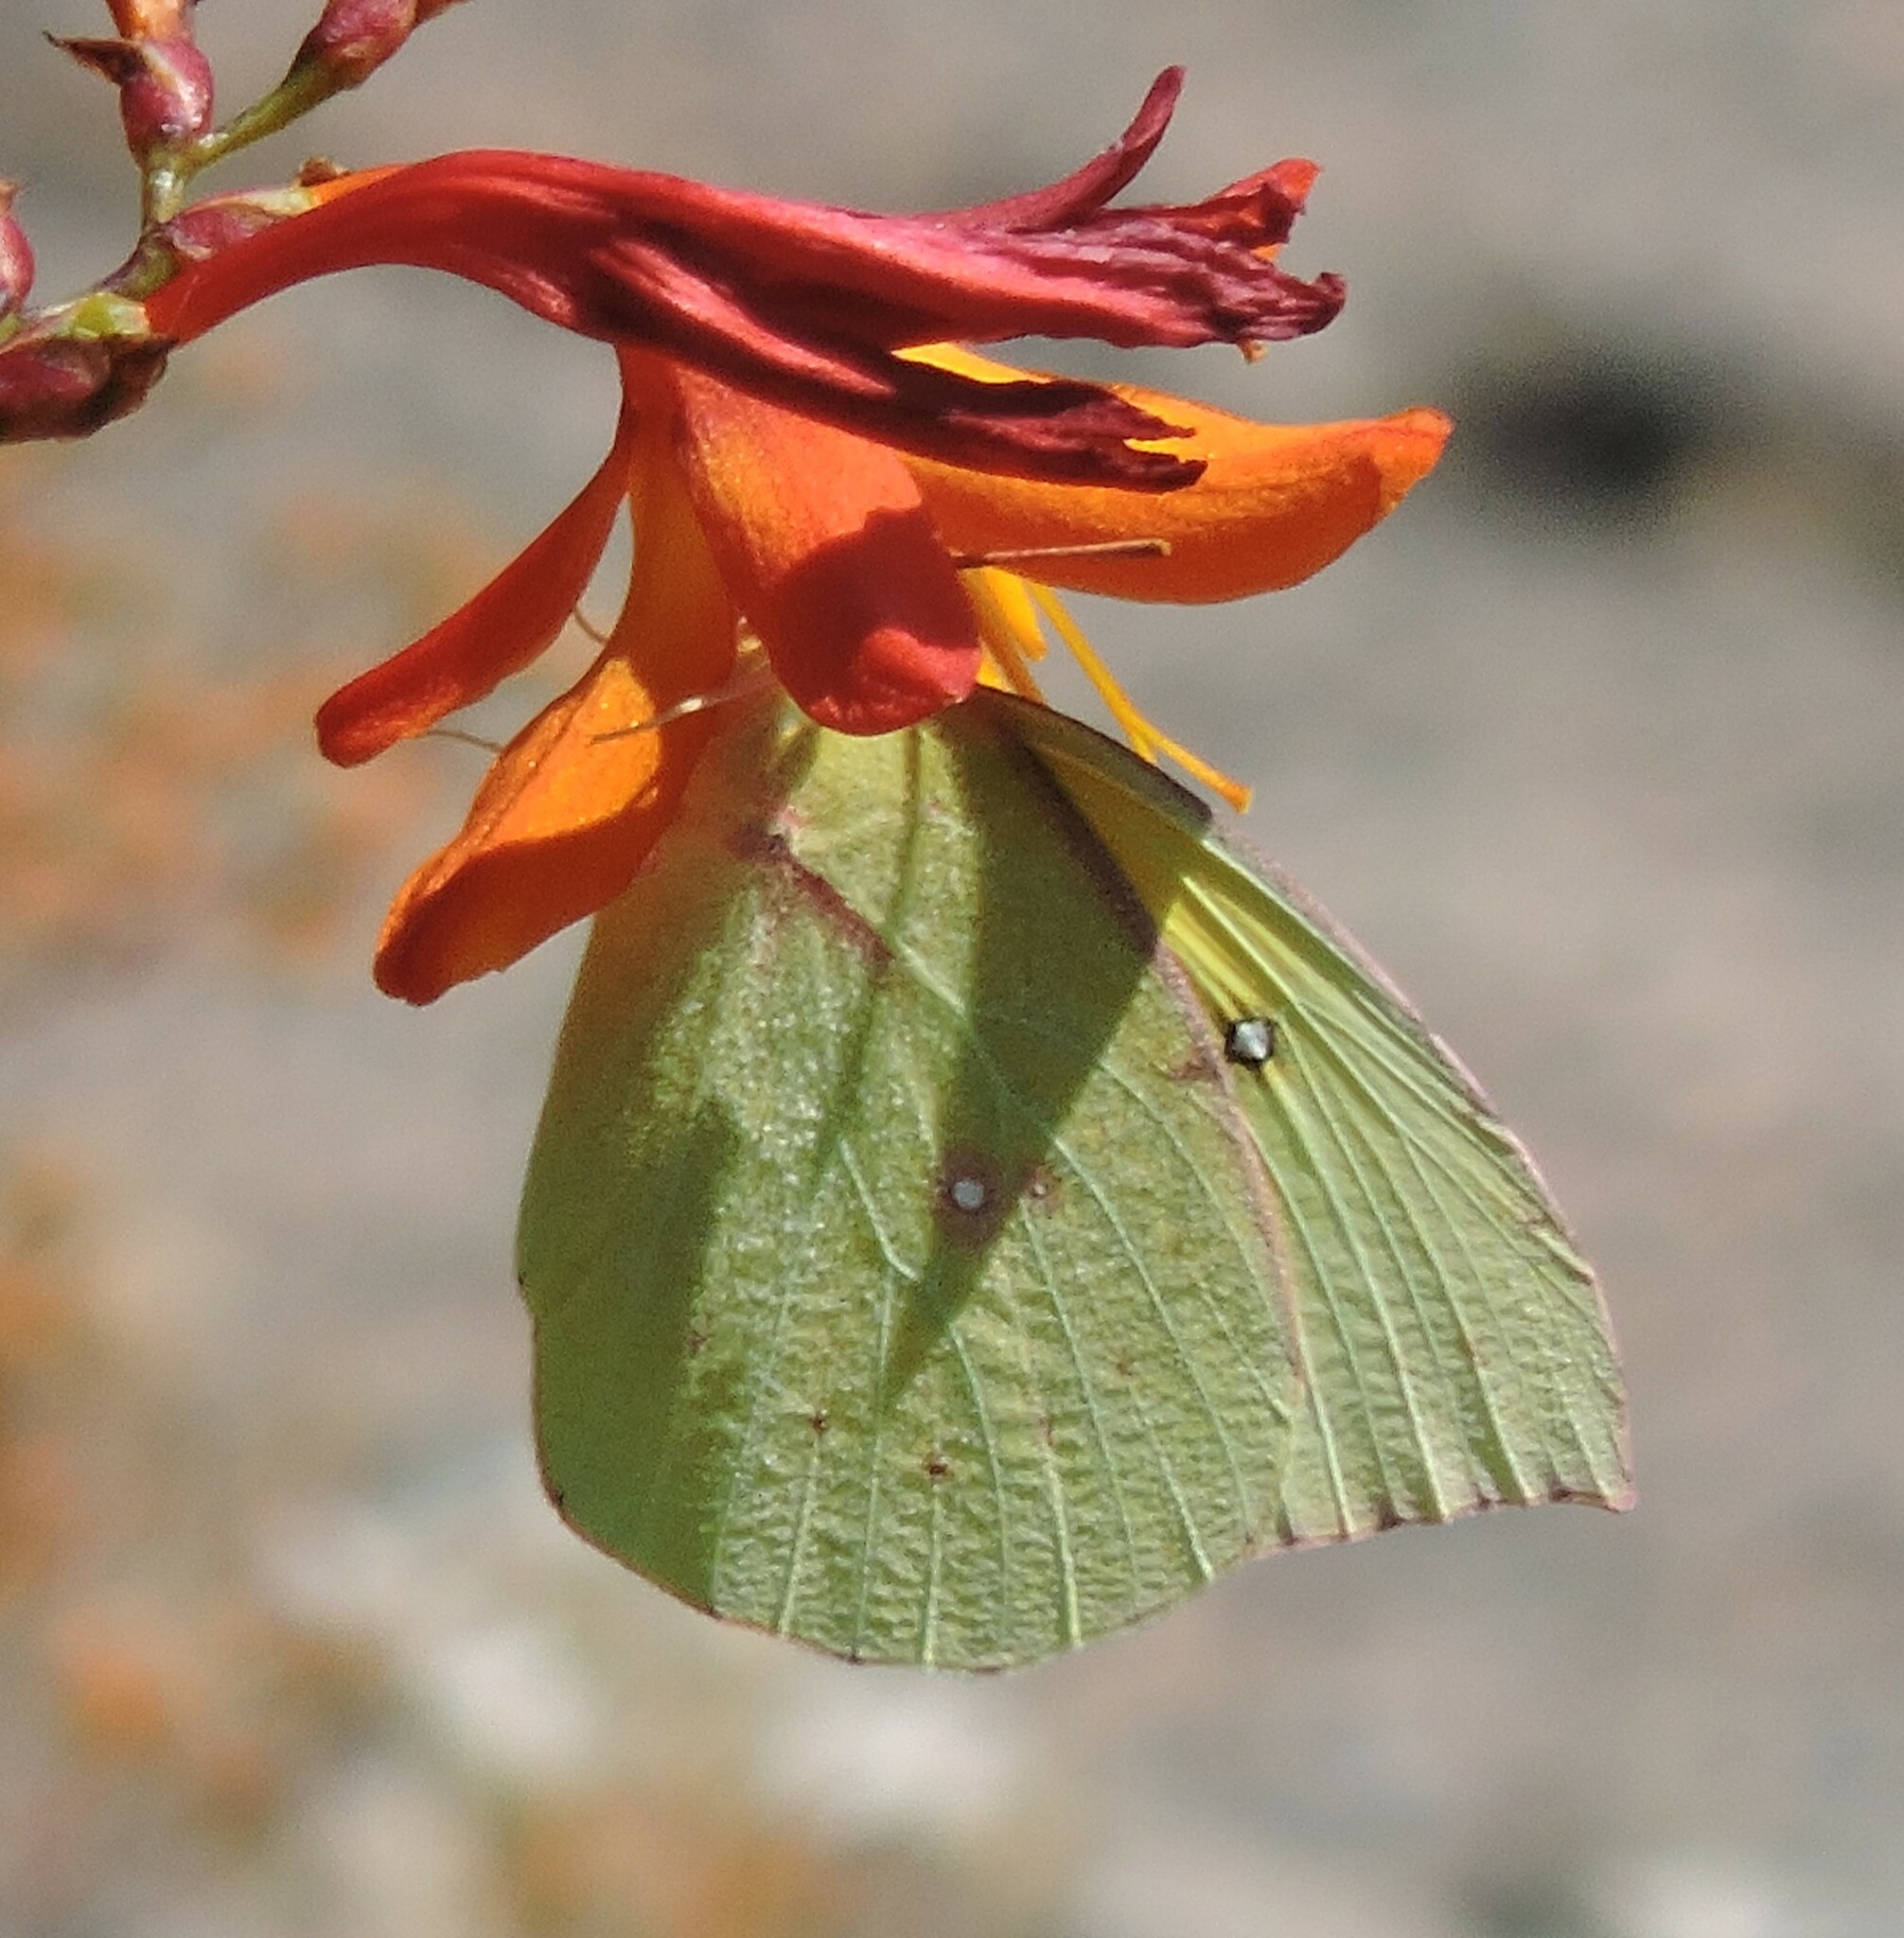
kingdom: Animalia
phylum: Arthropoda
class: Insecta
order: Lepidoptera
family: Pieridae
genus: Zerene
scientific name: Zerene eurydice
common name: California dogface
